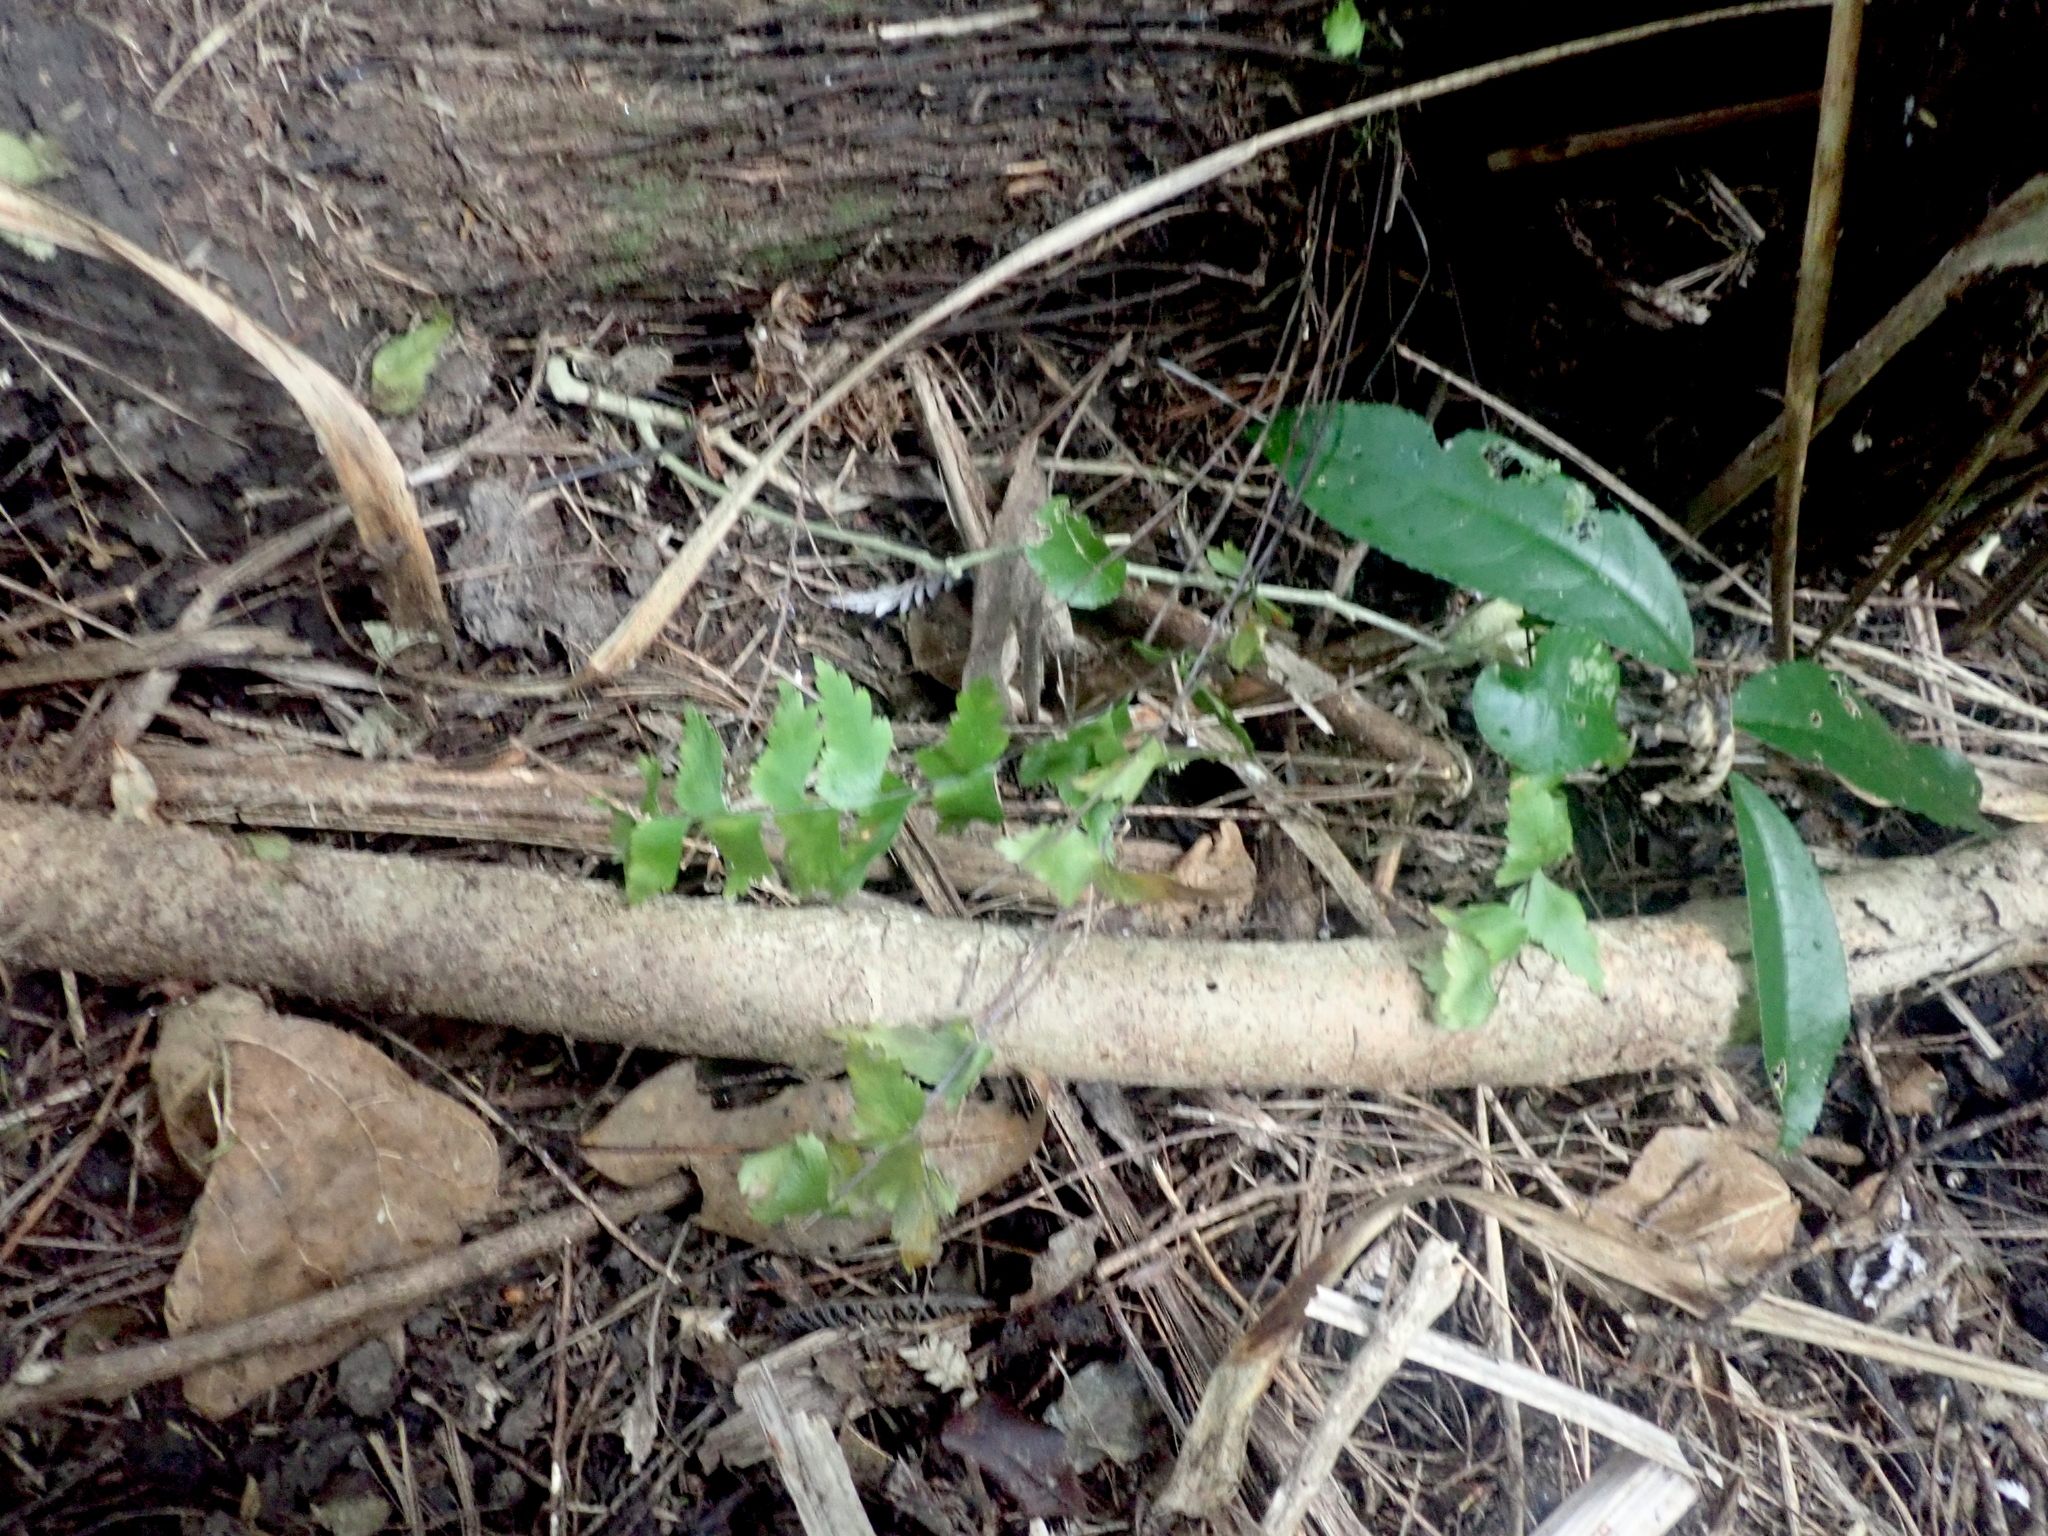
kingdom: Plantae
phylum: Tracheophyta
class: Polypodiopsida
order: Polypodiales
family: Aspleniaceae
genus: Asplenium
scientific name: Asplenium polyodon
